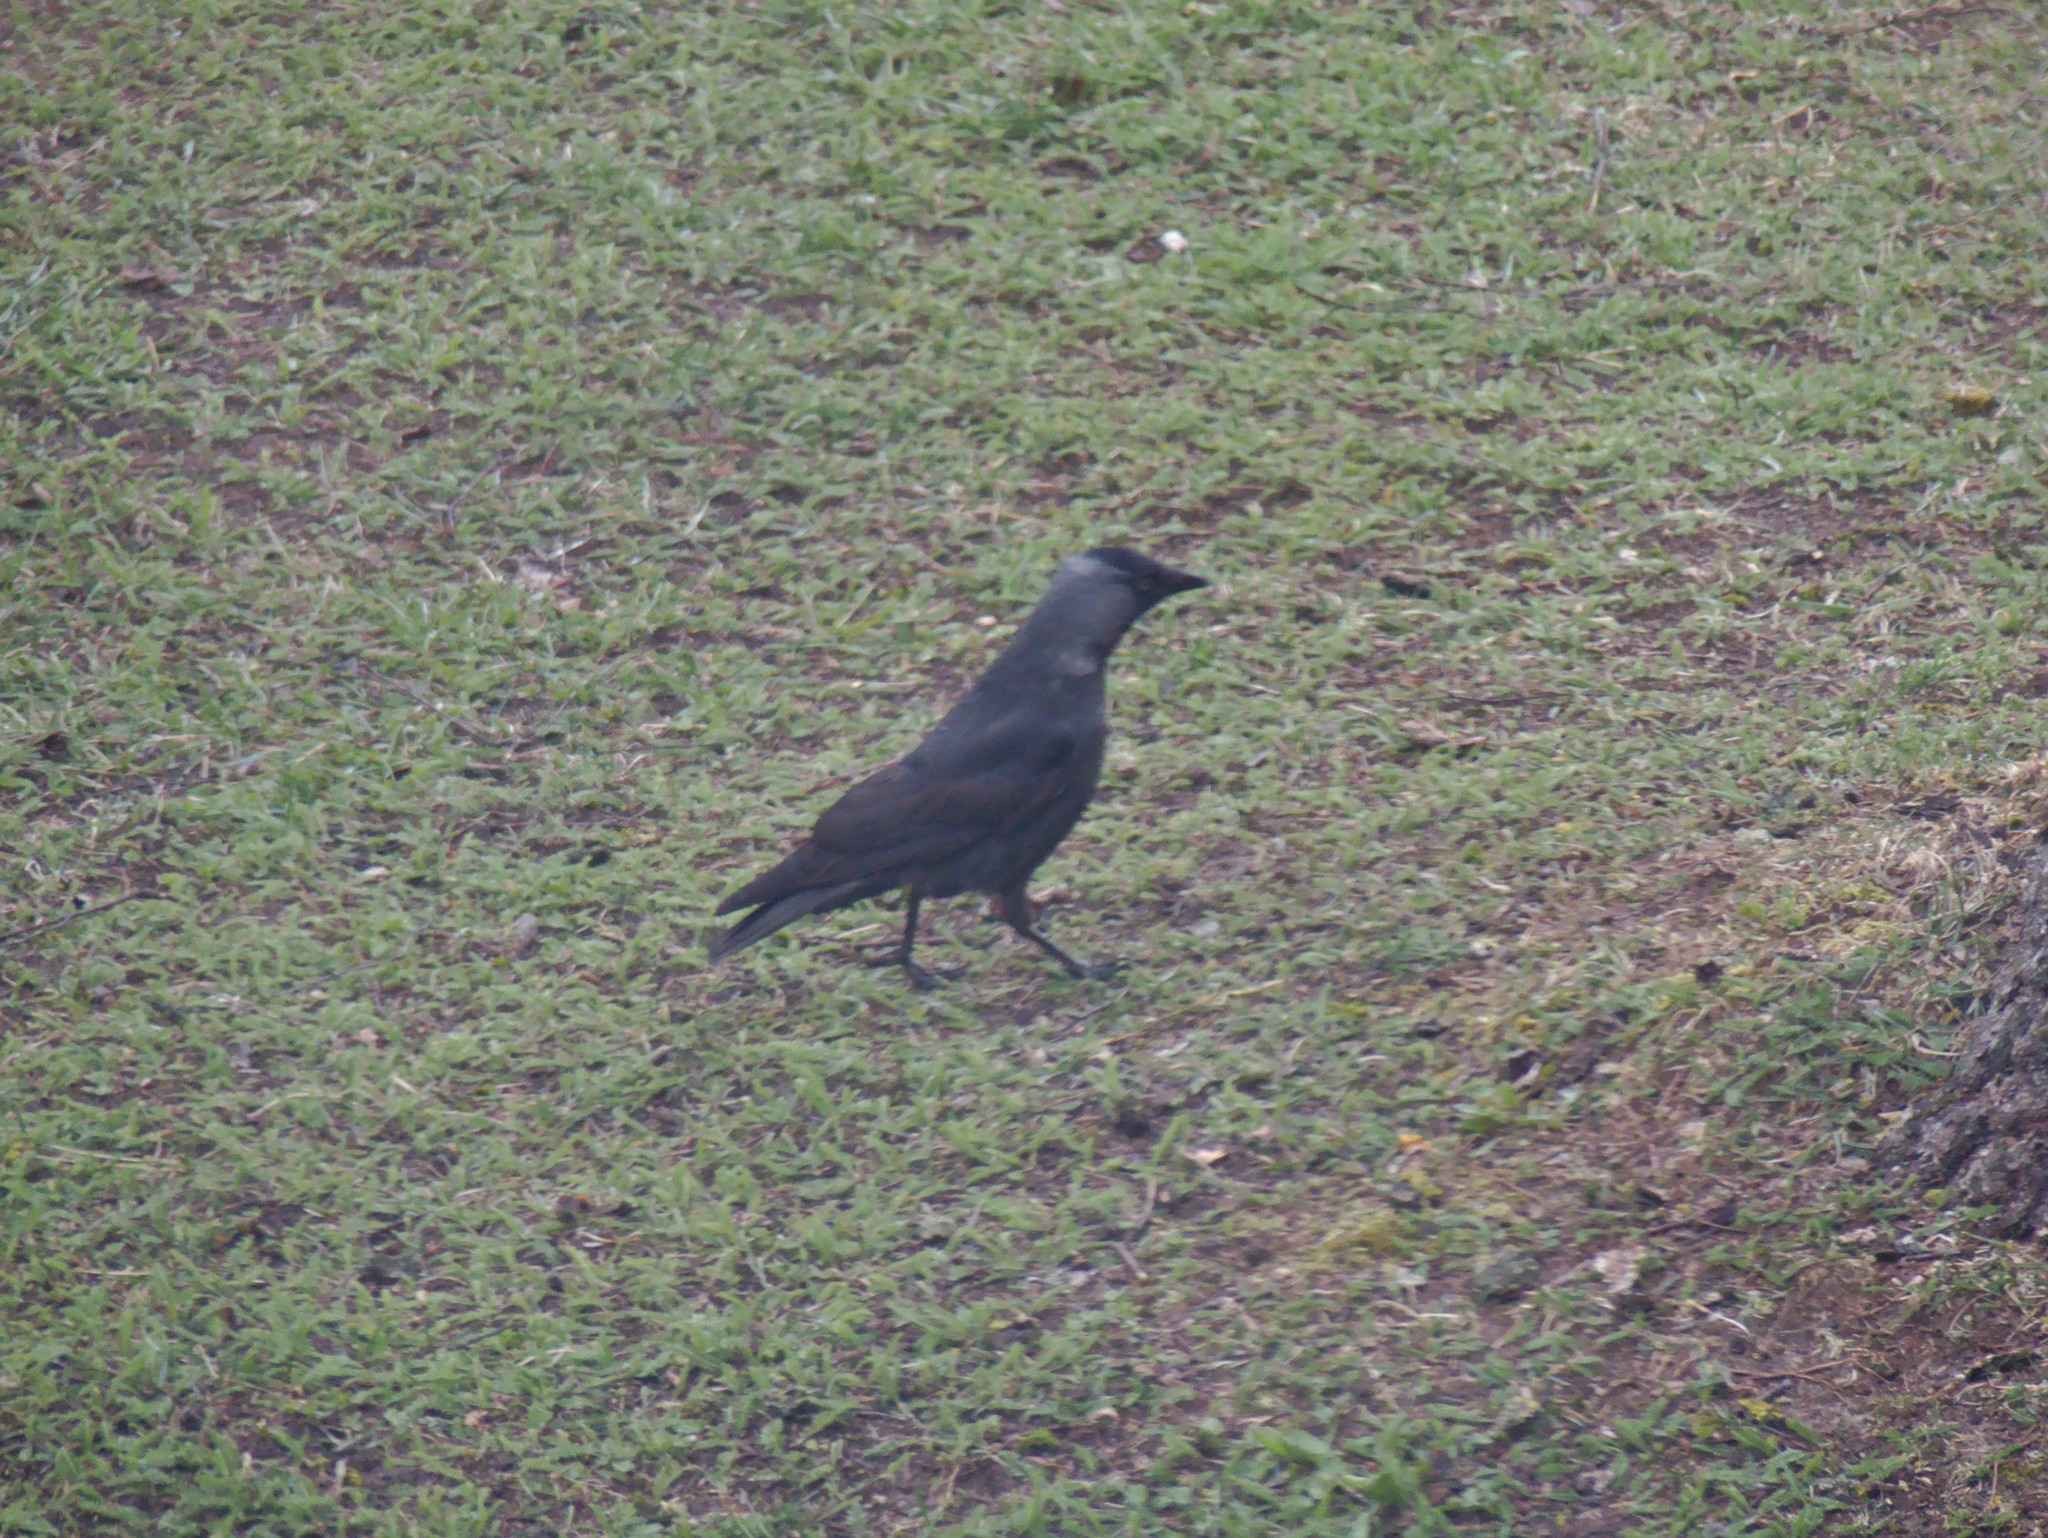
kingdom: Animalia
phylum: Chordata
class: Aves
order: Passeriformes
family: Corvidae
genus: Coloeus
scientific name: Coloeus monedula
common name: Western jackdaw
